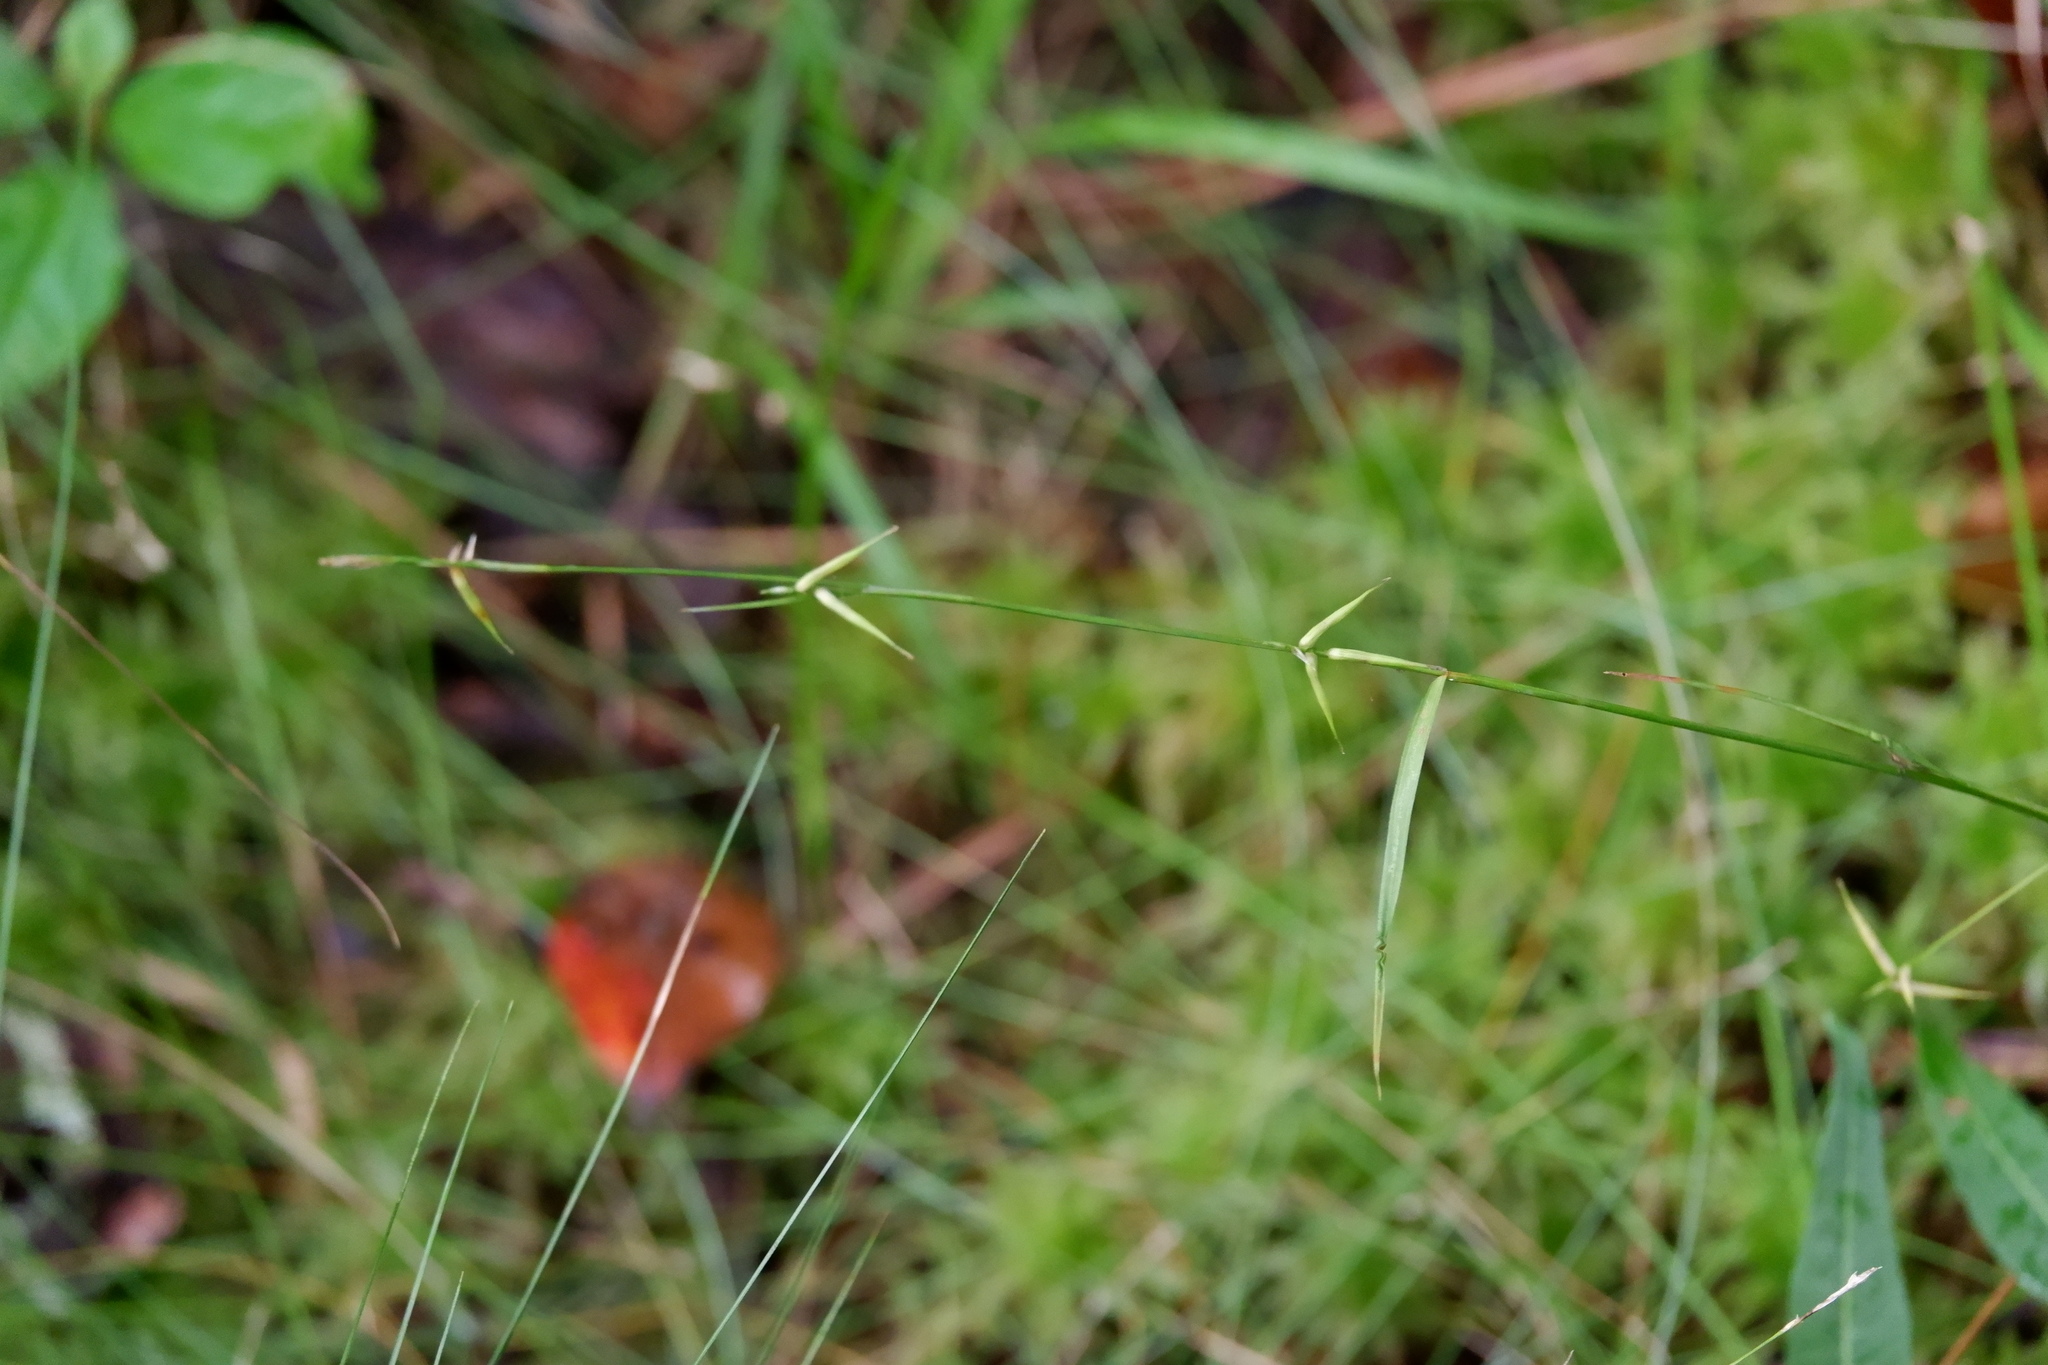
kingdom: Plantae
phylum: Tracheophyta
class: Liliopsida
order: Poales
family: Cyperaceae
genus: Carex
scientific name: Carex collinsii
